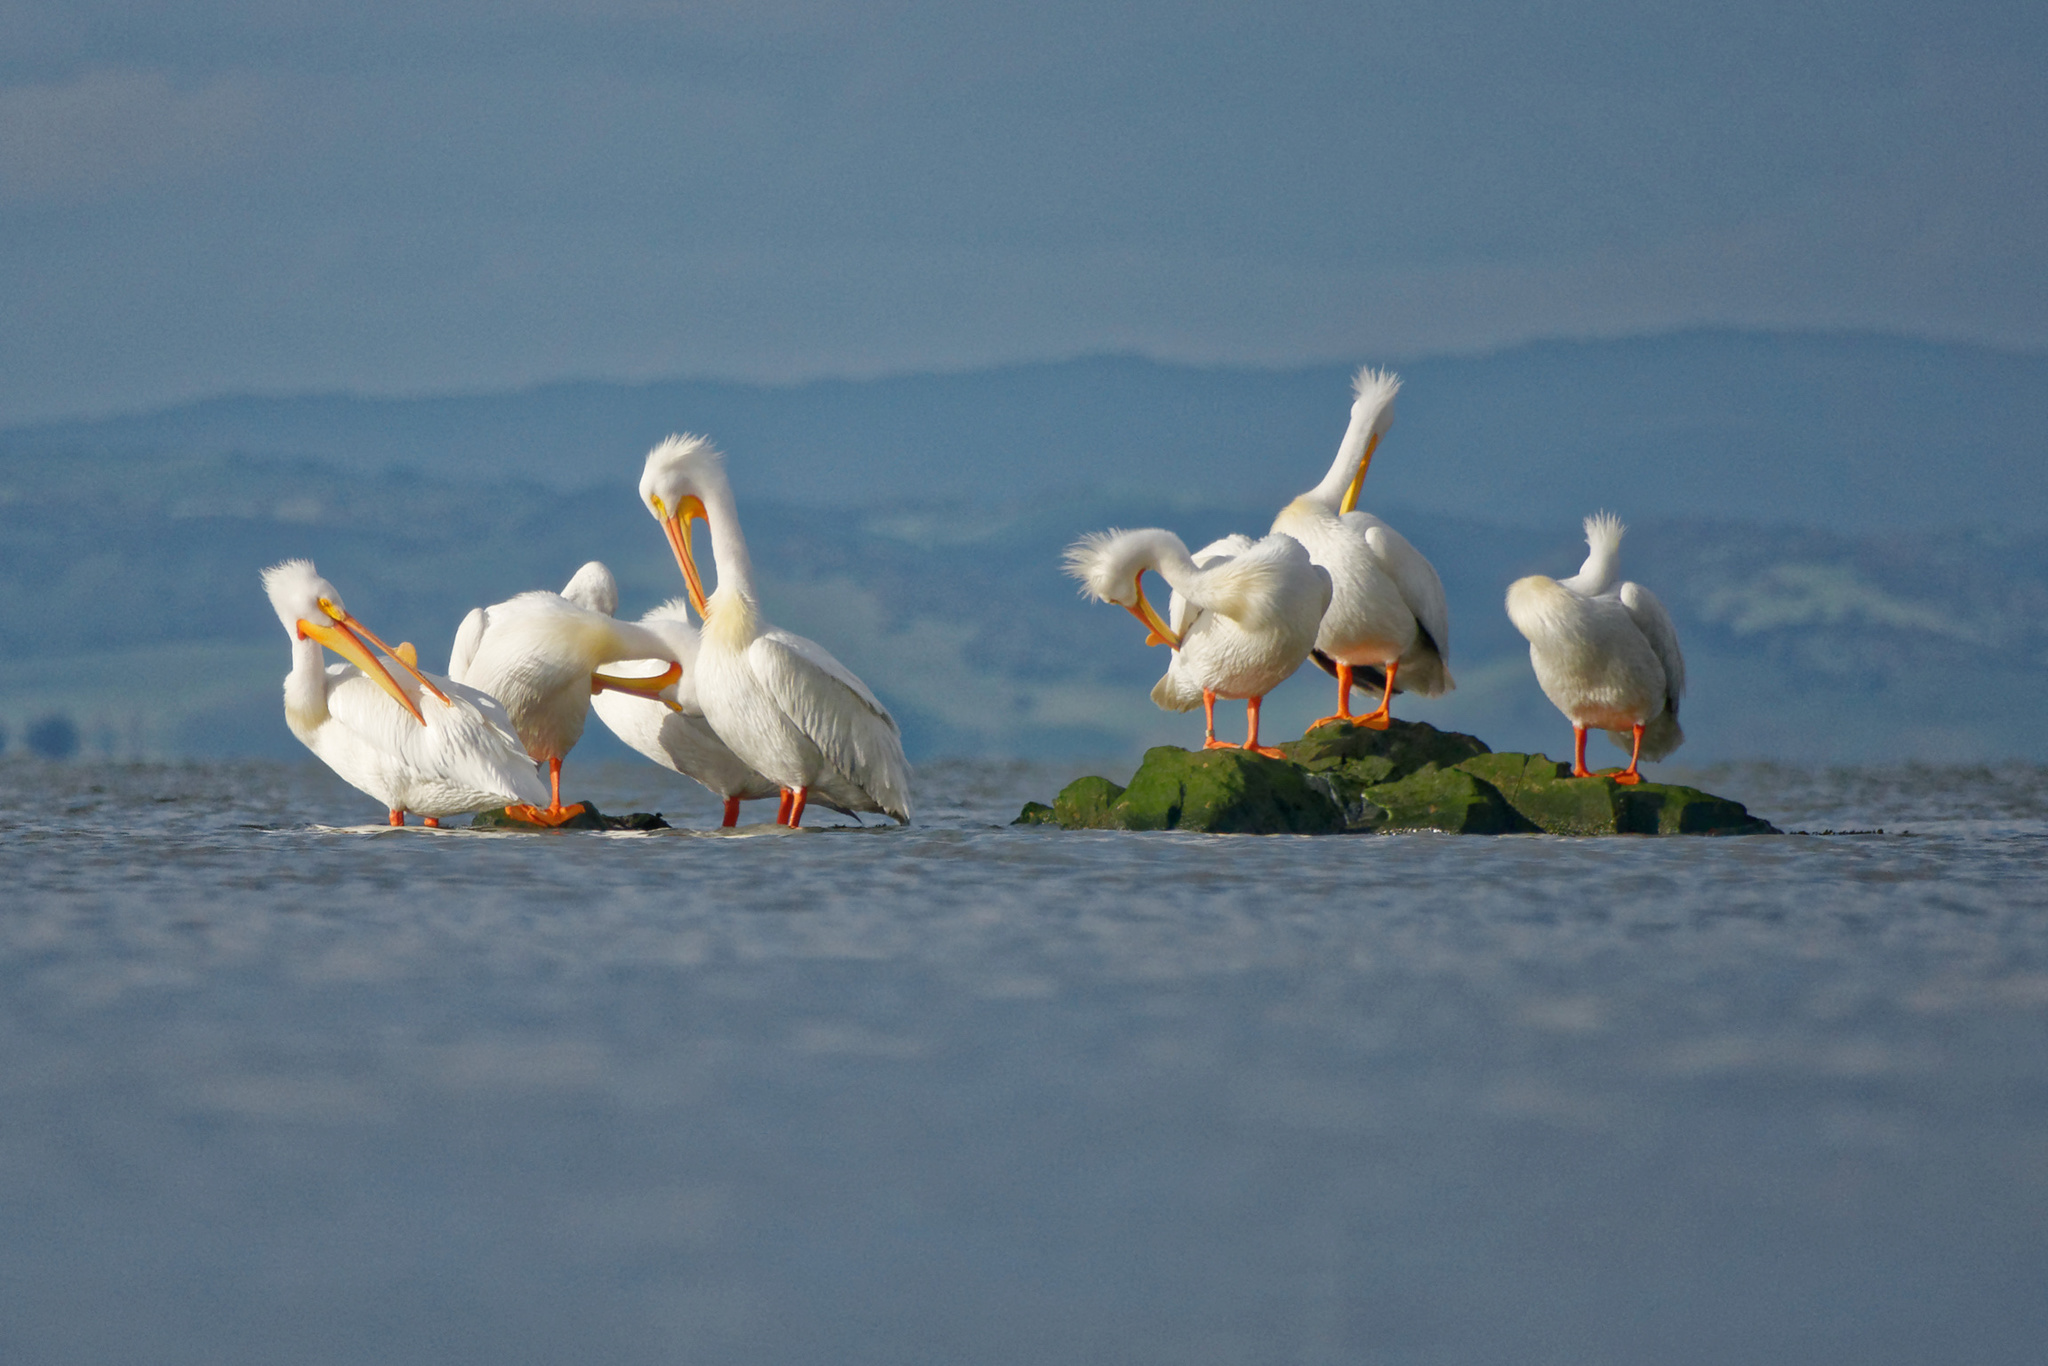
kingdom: Animalia
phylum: Chordata
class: Aves
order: Pelecaniformes
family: Pelecanidae
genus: Pelecanus
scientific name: Pelecanus erythrorhynchos
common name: American white pelican
